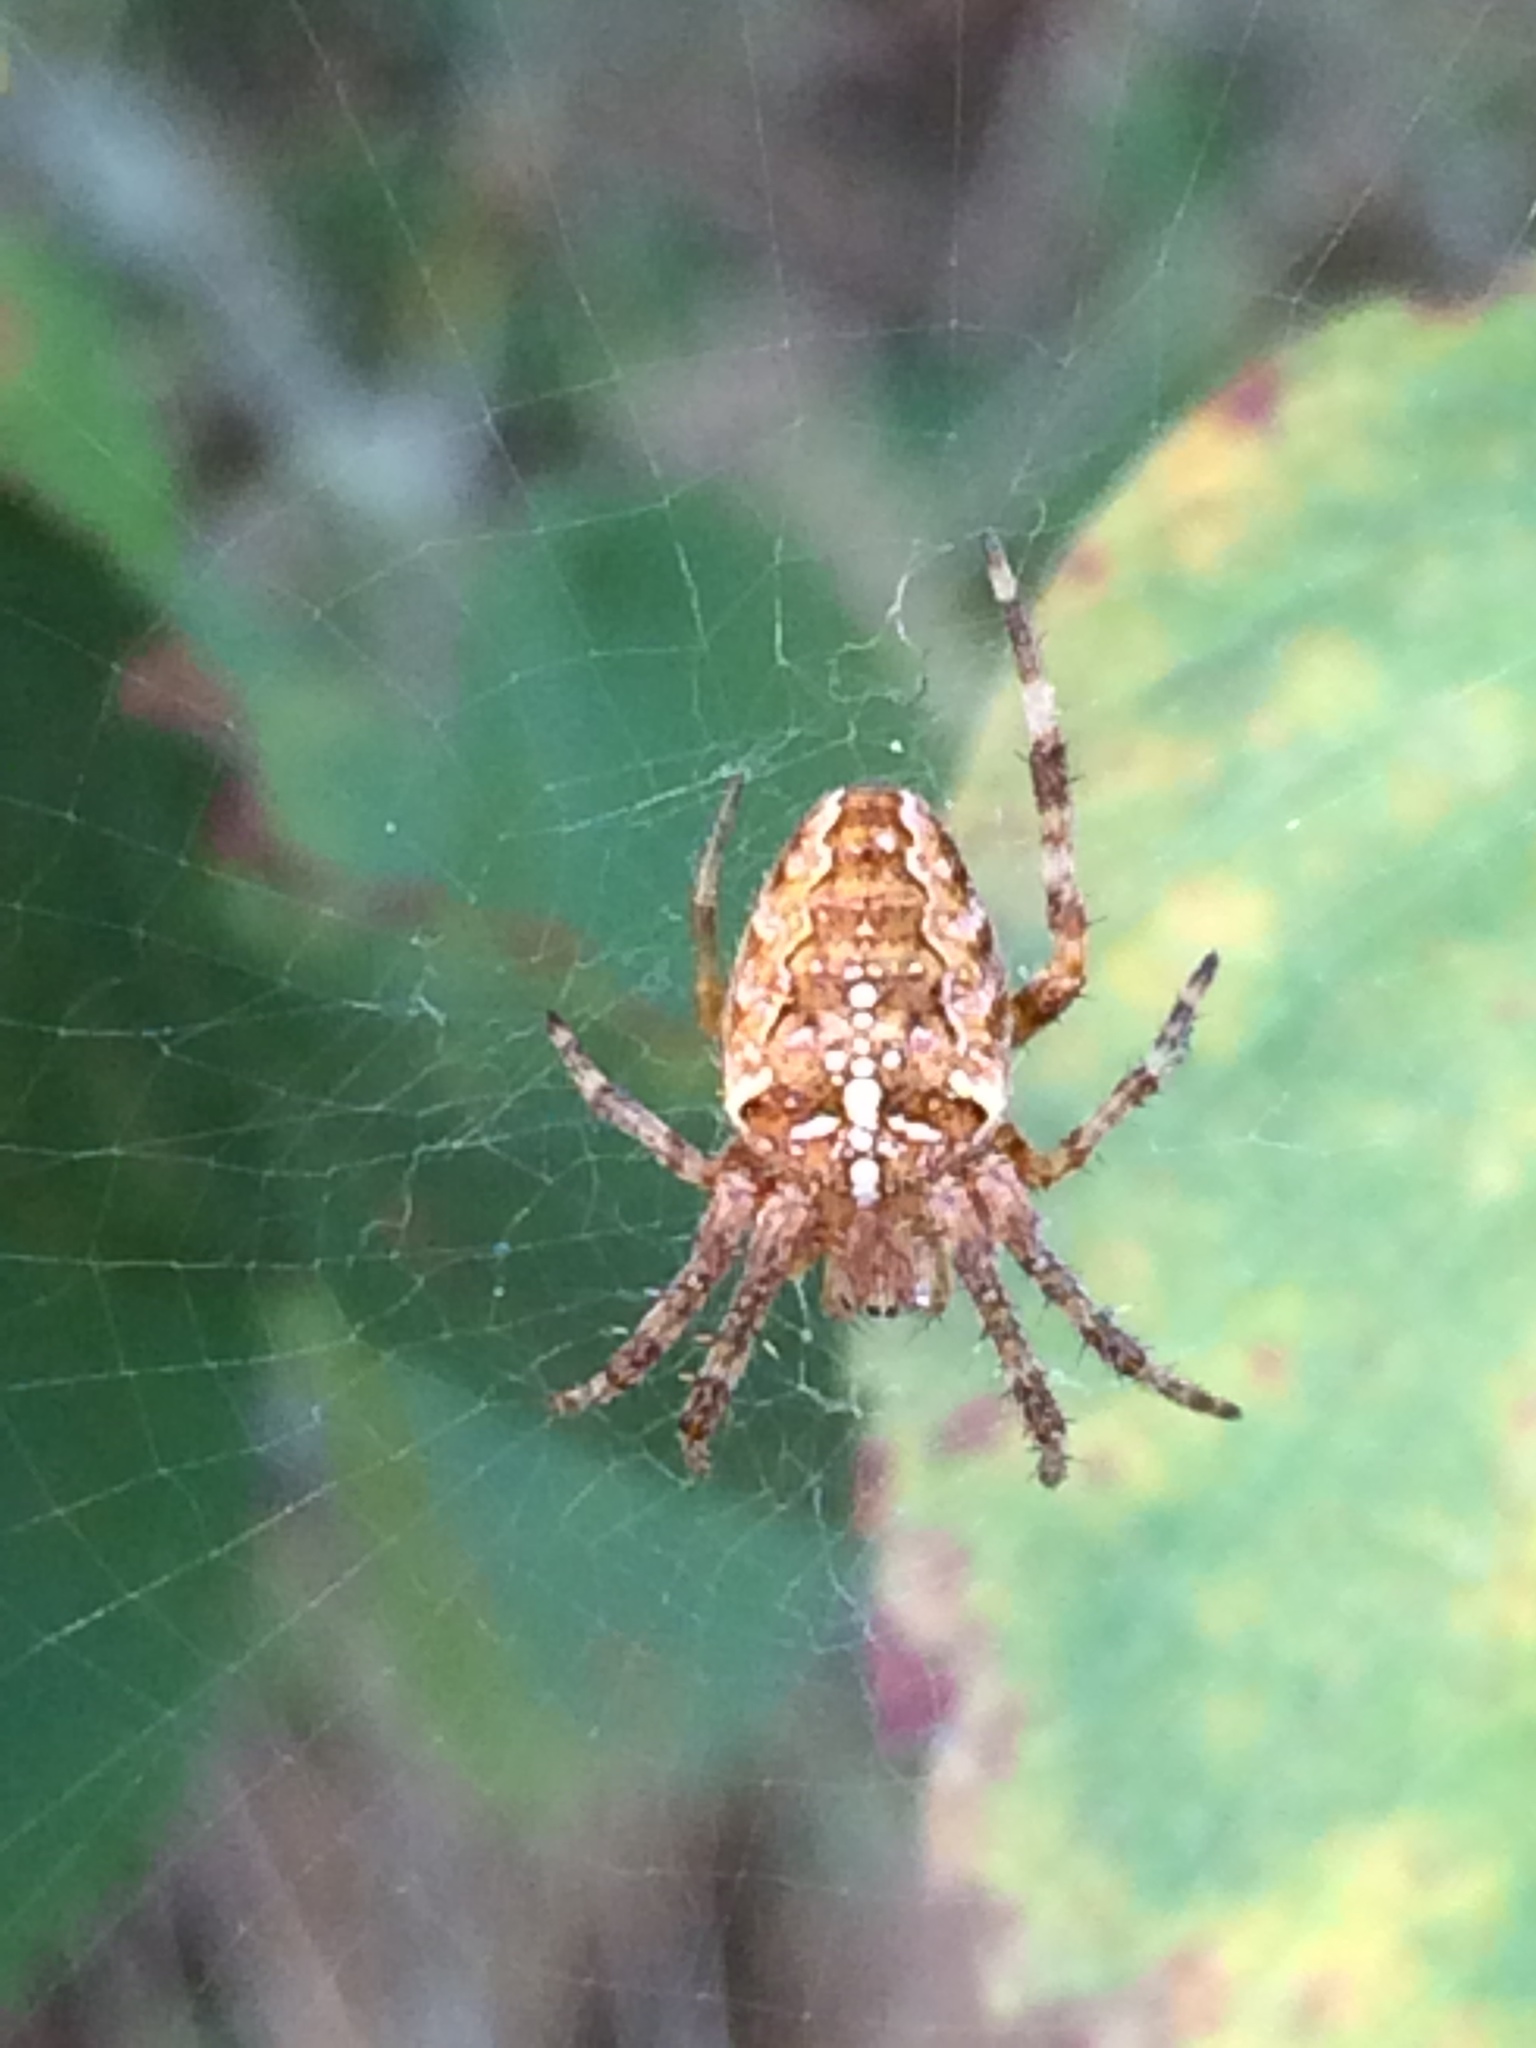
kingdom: Animalia
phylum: Arthropoda
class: Arachnida
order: Araneae
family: Araneidae
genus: Araneus
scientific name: Araneus diadematus
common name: Cross orbweaver
